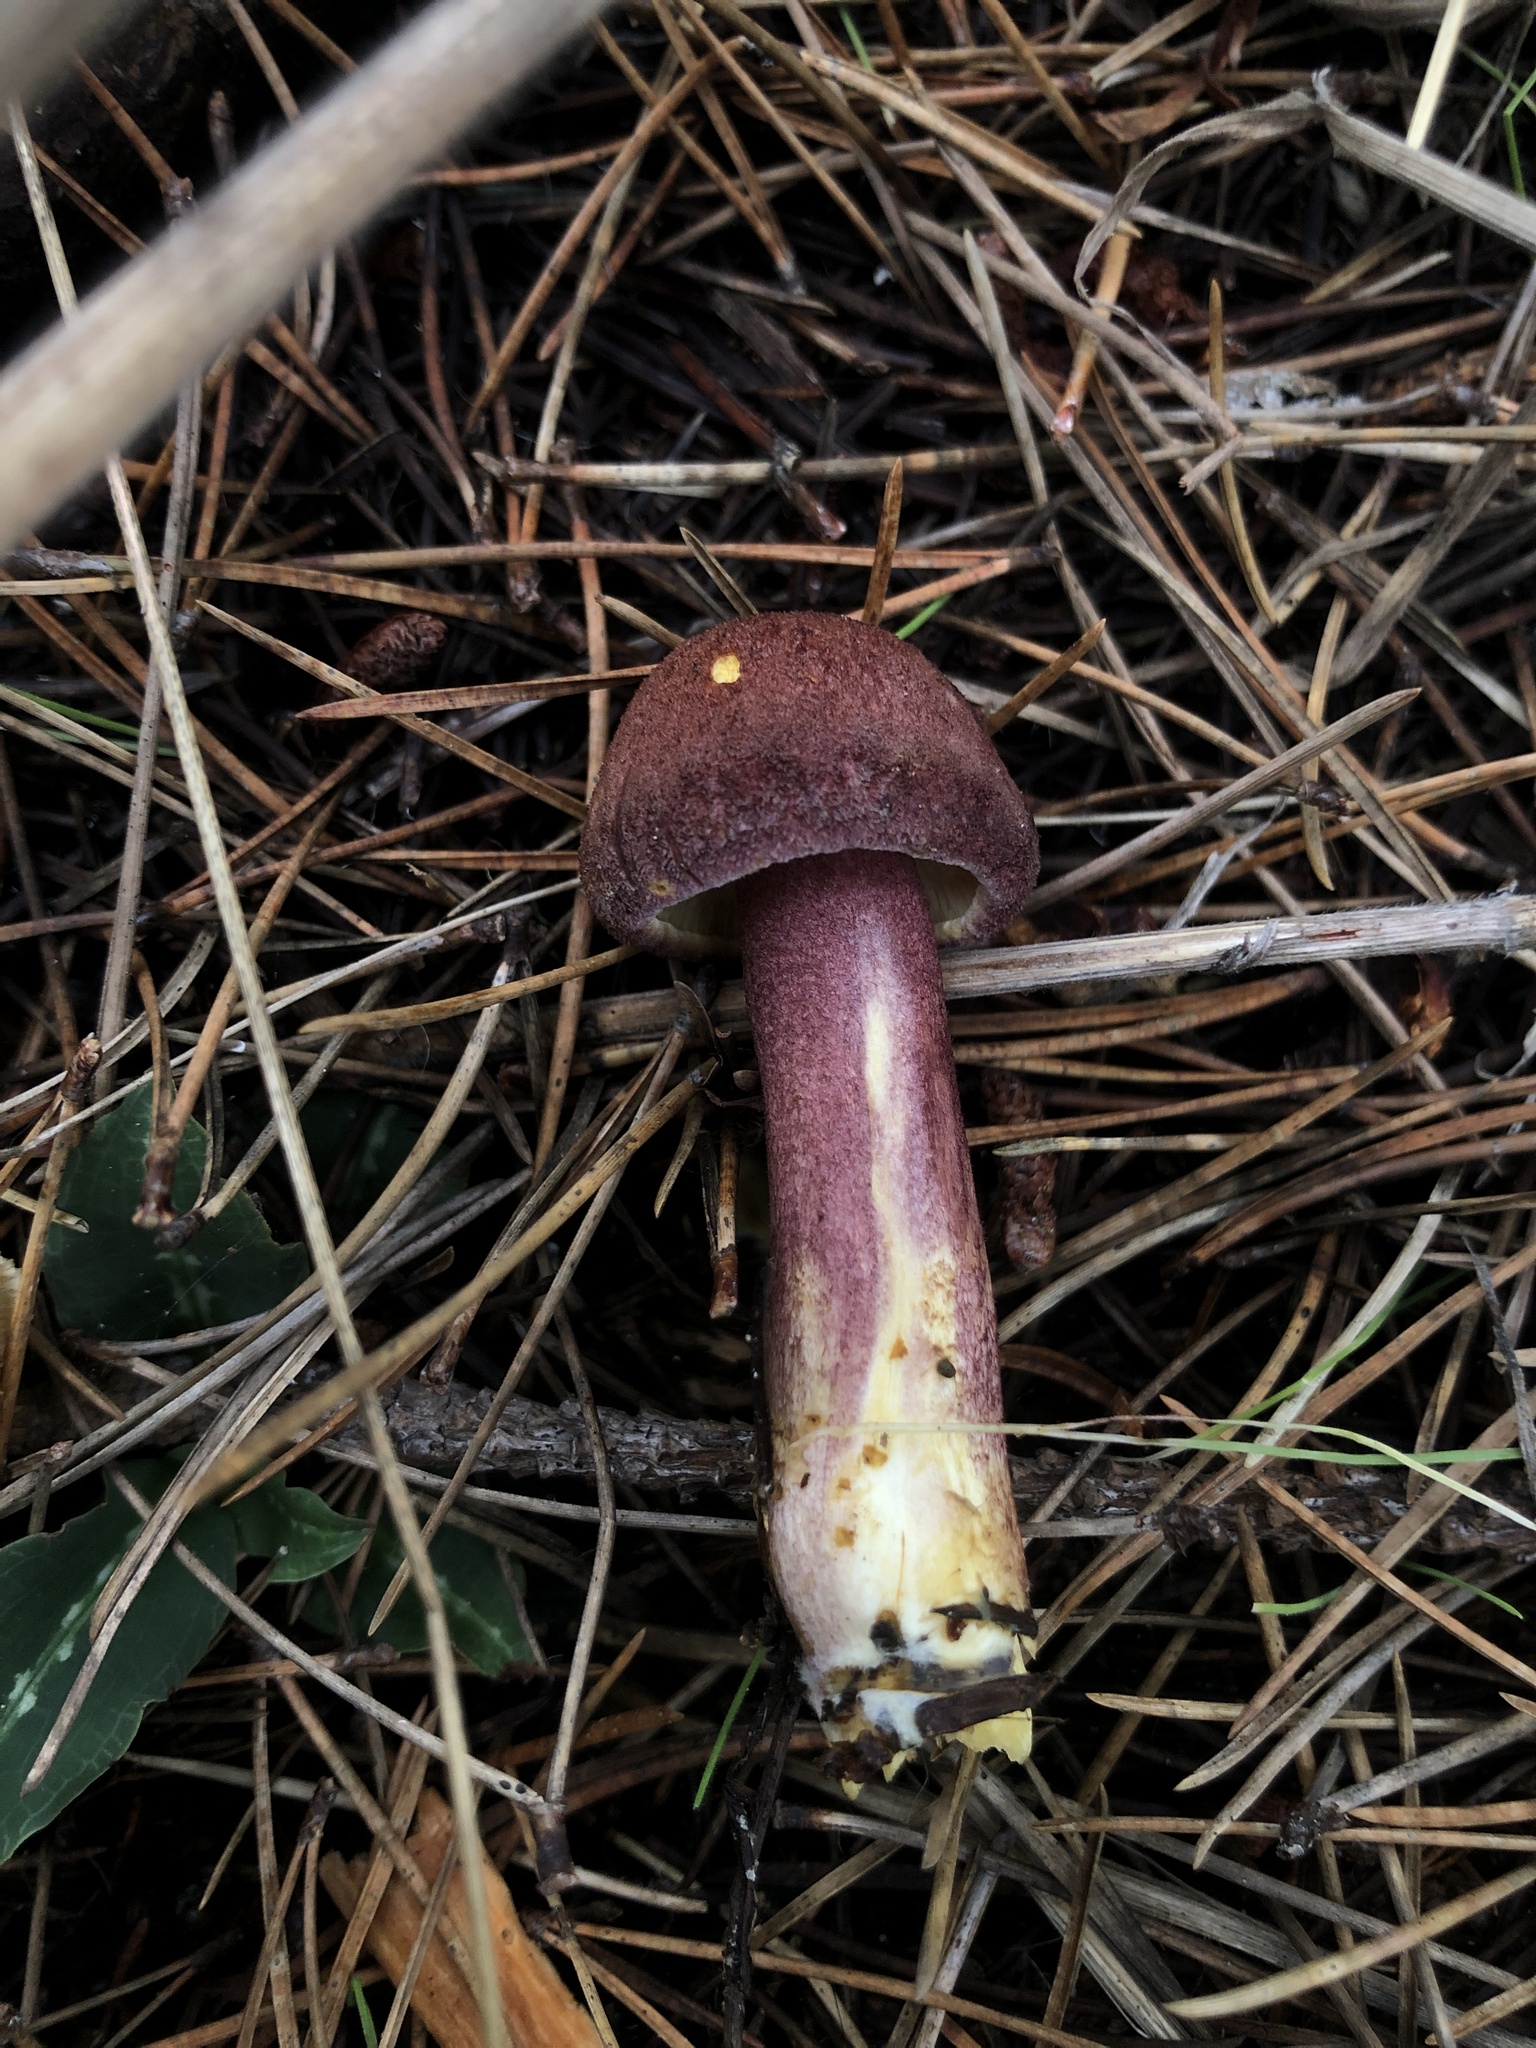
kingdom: Fungi
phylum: Basidiomycota
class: Agaricomycetes
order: Agaricales
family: Tricholomataceae
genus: Tricholomopsis
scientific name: Tricholomopsis rutilans
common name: Plums and custard
